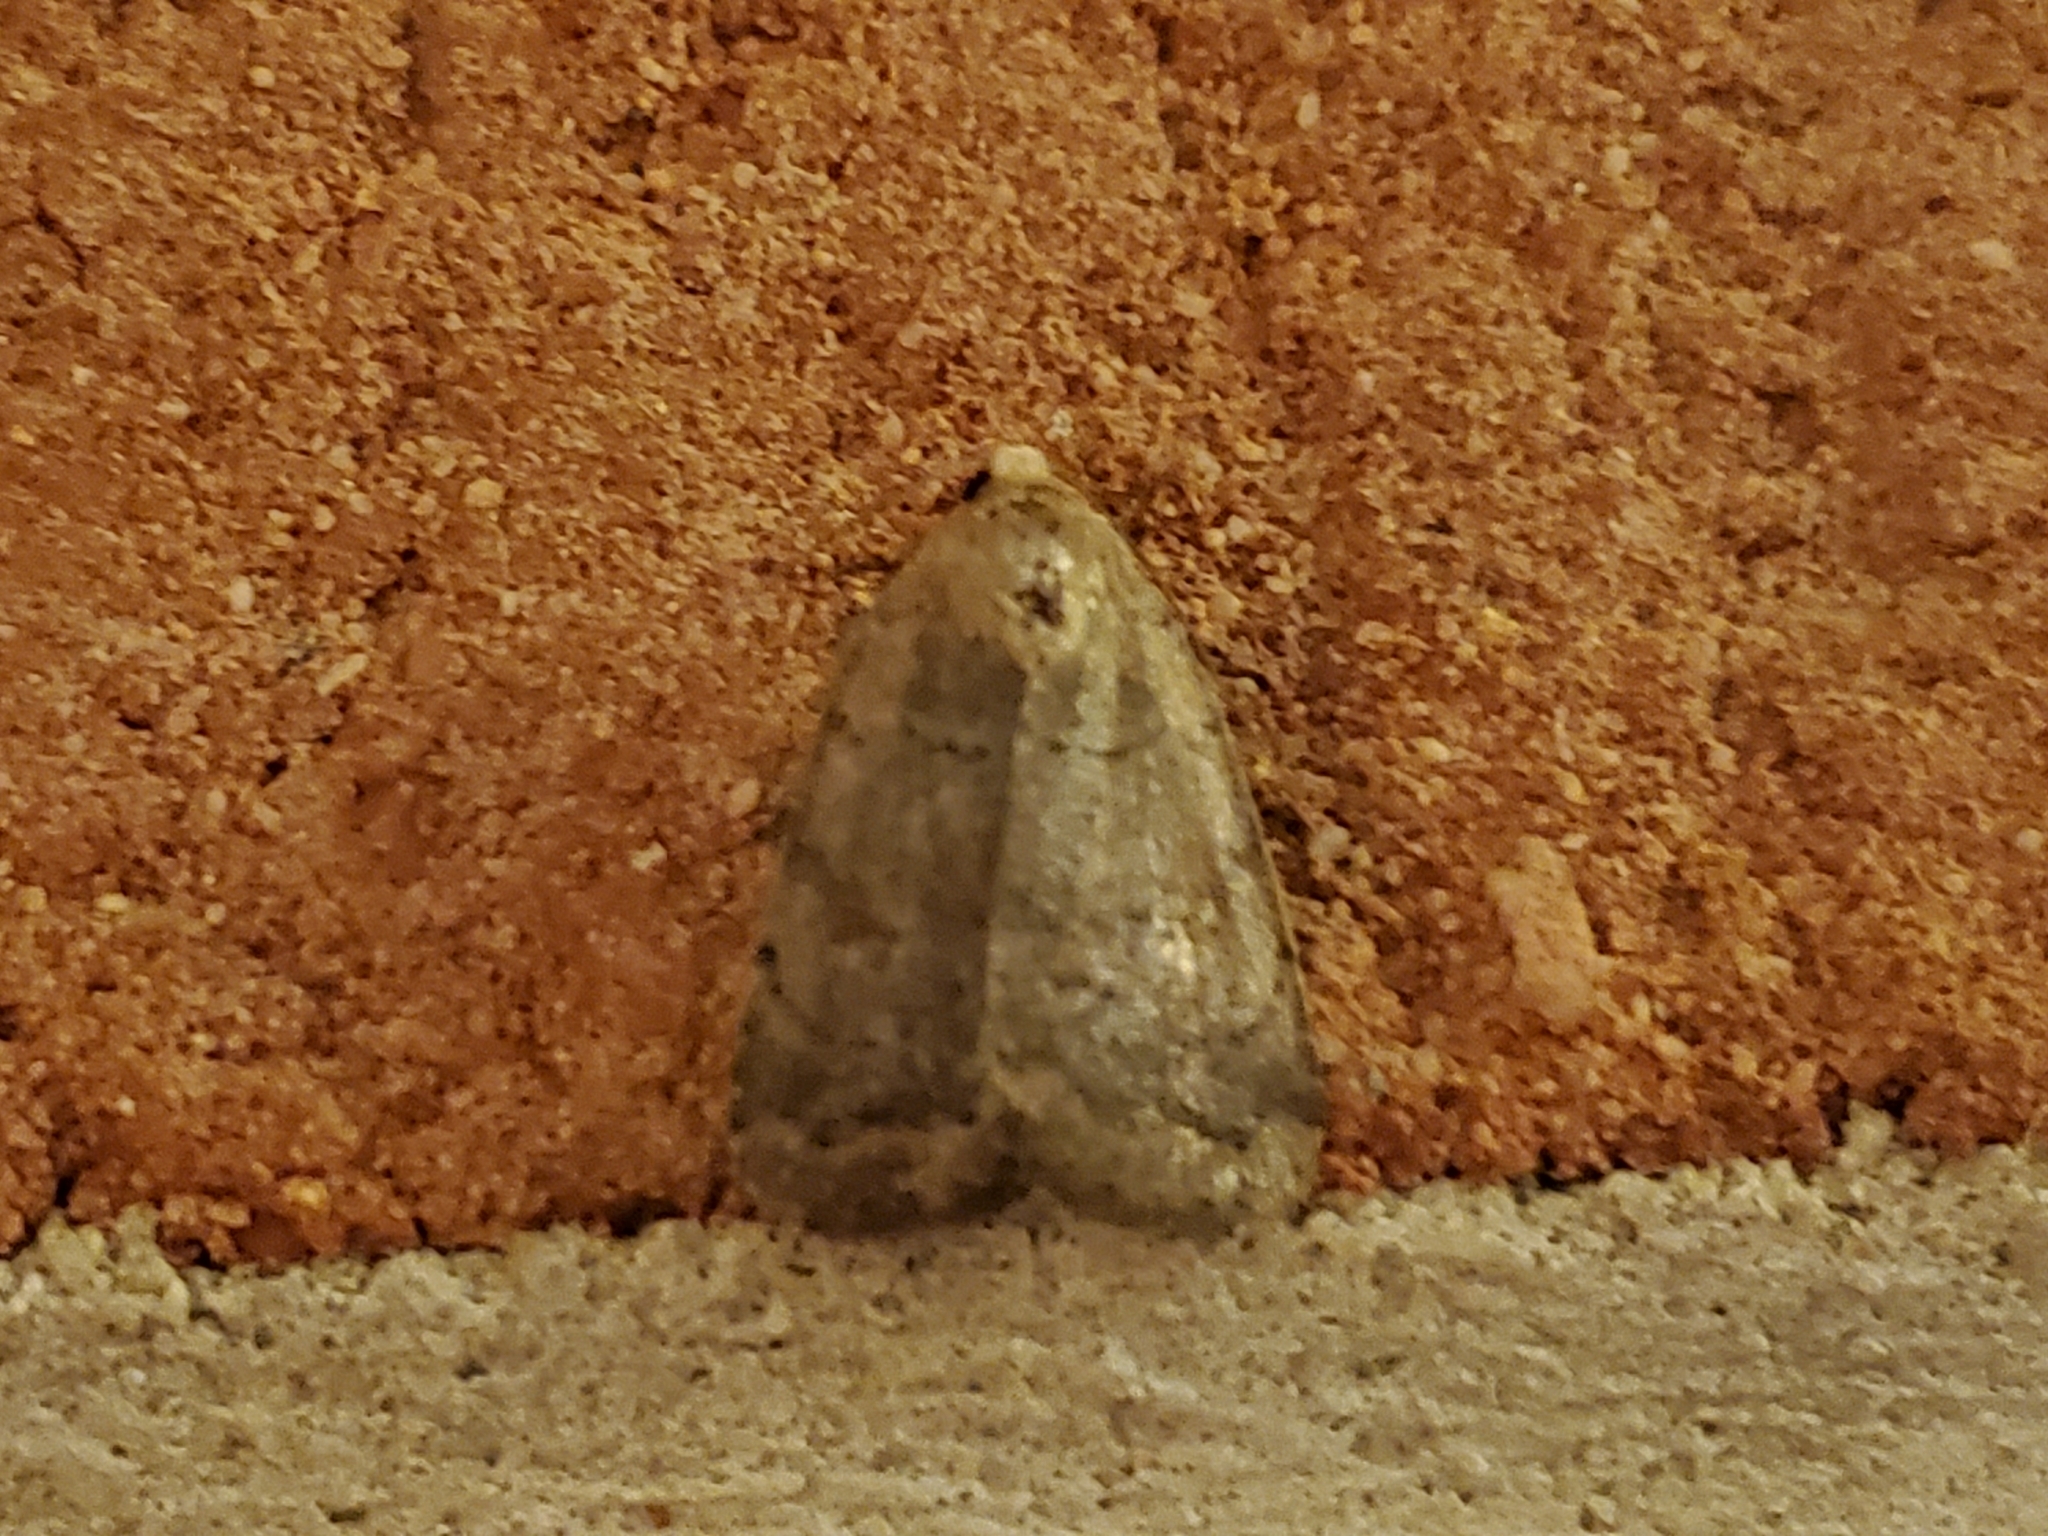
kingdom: Animalia
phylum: Arthropoda
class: Insecta
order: Lepidoptera
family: Noctuidae
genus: Athetis
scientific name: Athetis tarda
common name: Slowpoke moth
